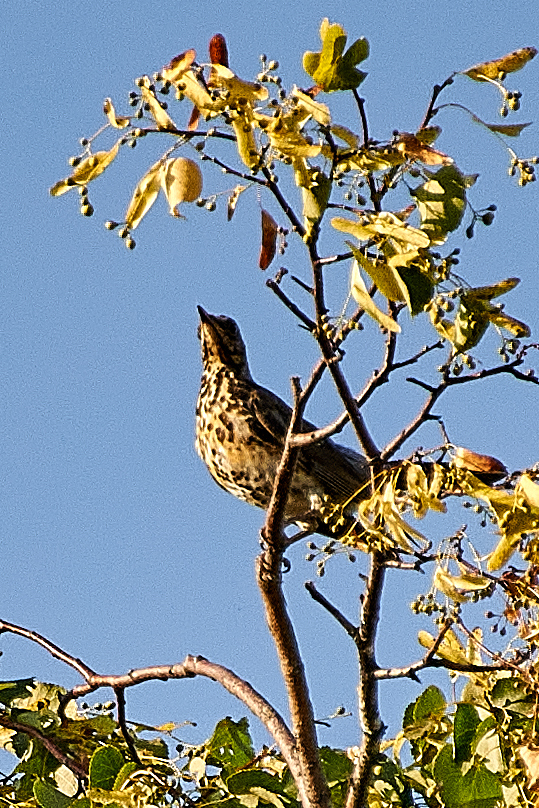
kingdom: Animalia
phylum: Chordata
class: Aves
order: Passeriformes
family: Turdidae
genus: Turdus
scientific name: Turdus pilaris
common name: Fieldfare
